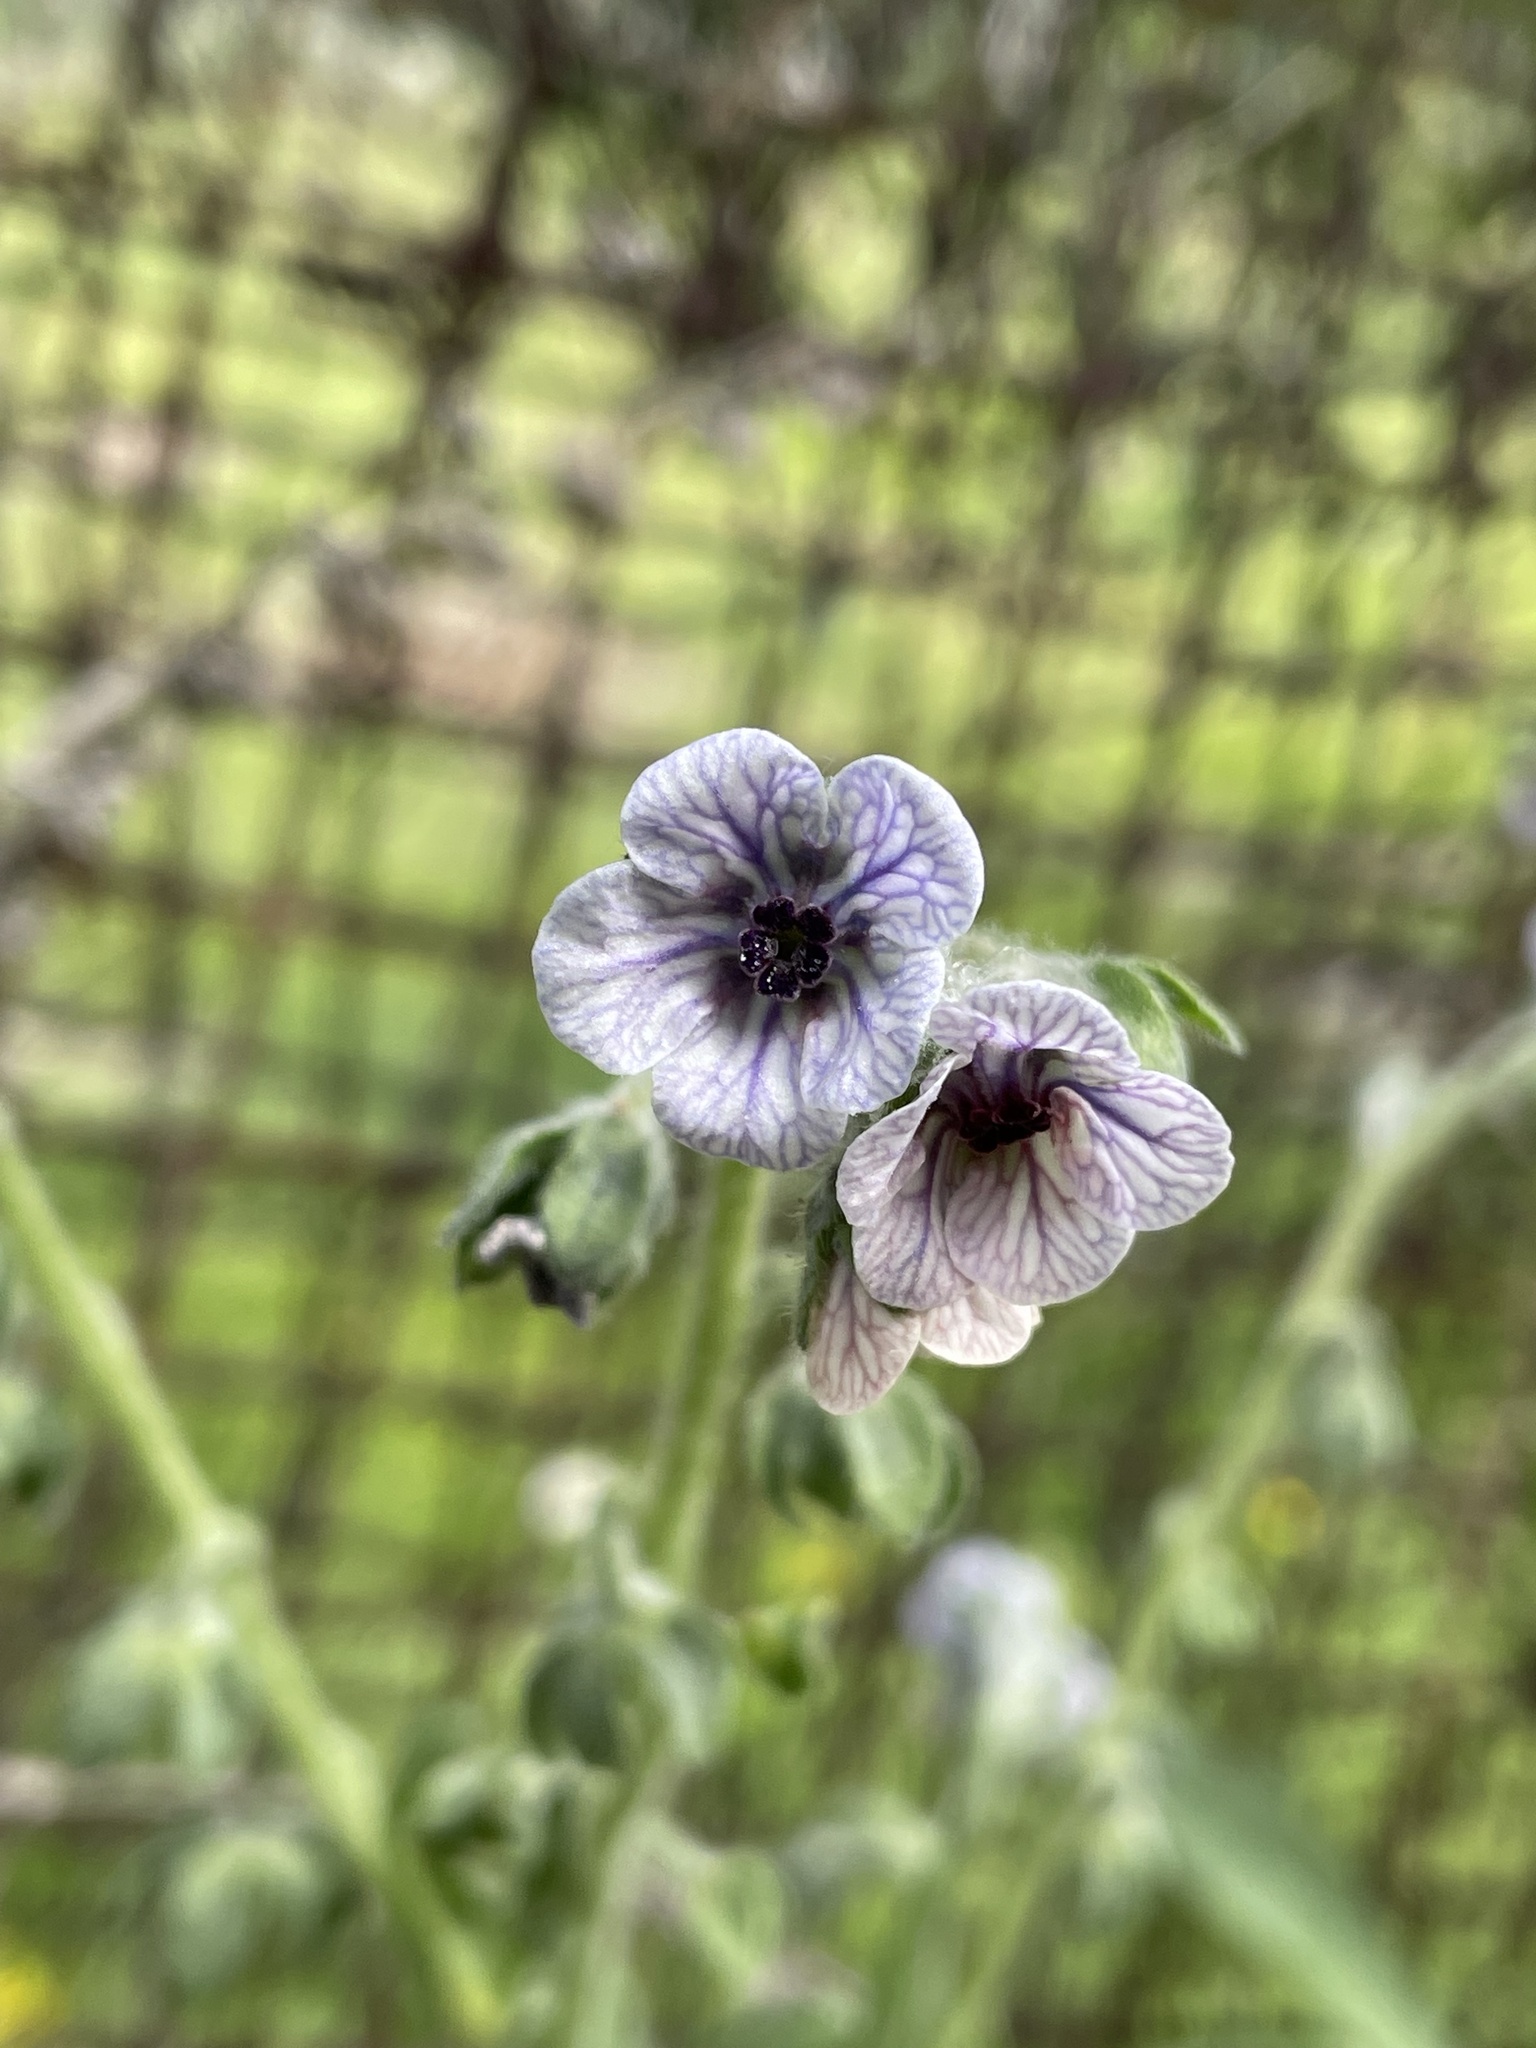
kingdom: Plantae
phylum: Tracheophyta
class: Magnoliopsida
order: Boraginales
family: Boraginaceae
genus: Cynoglossum
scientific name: Cynoglossum creticum
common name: Blue hound's tongue
